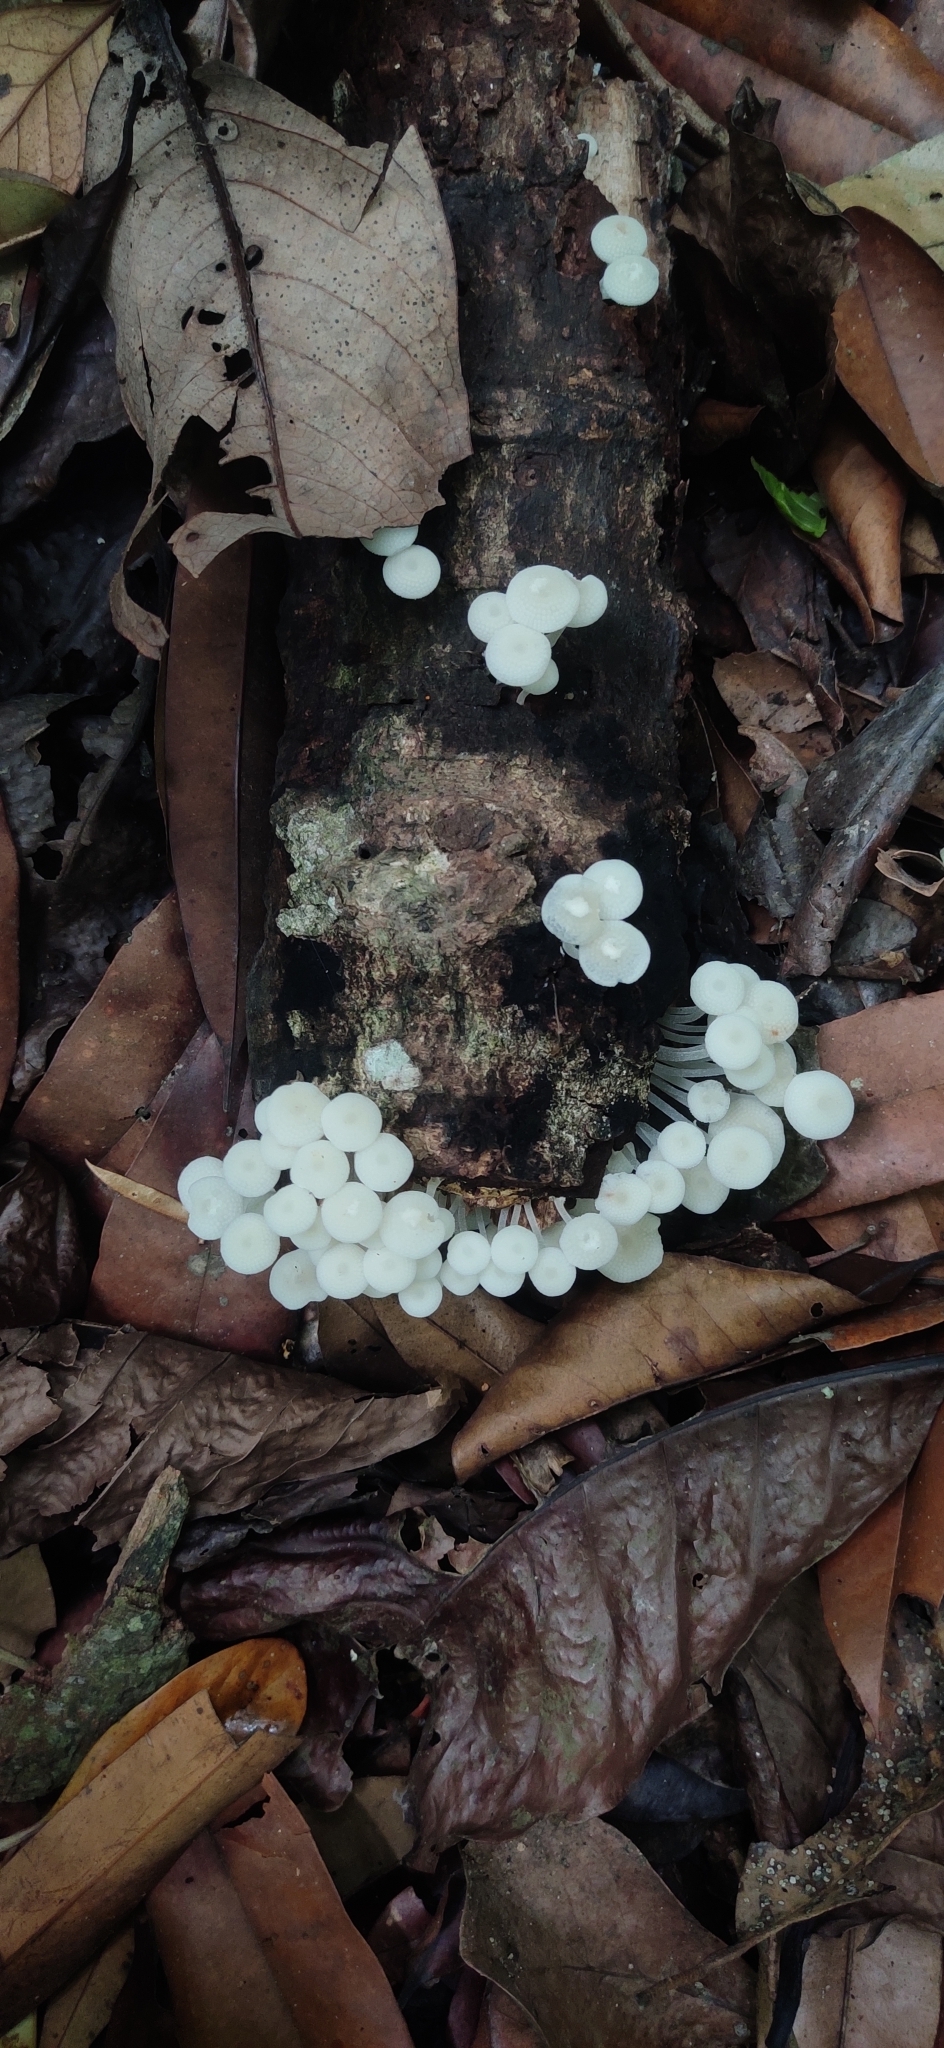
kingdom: Fungi
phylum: Basidiomycota
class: Agaricomycetes
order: Agaricales
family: Mycenaceae
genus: Filoboletus
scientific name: Filoboletus manipularis
